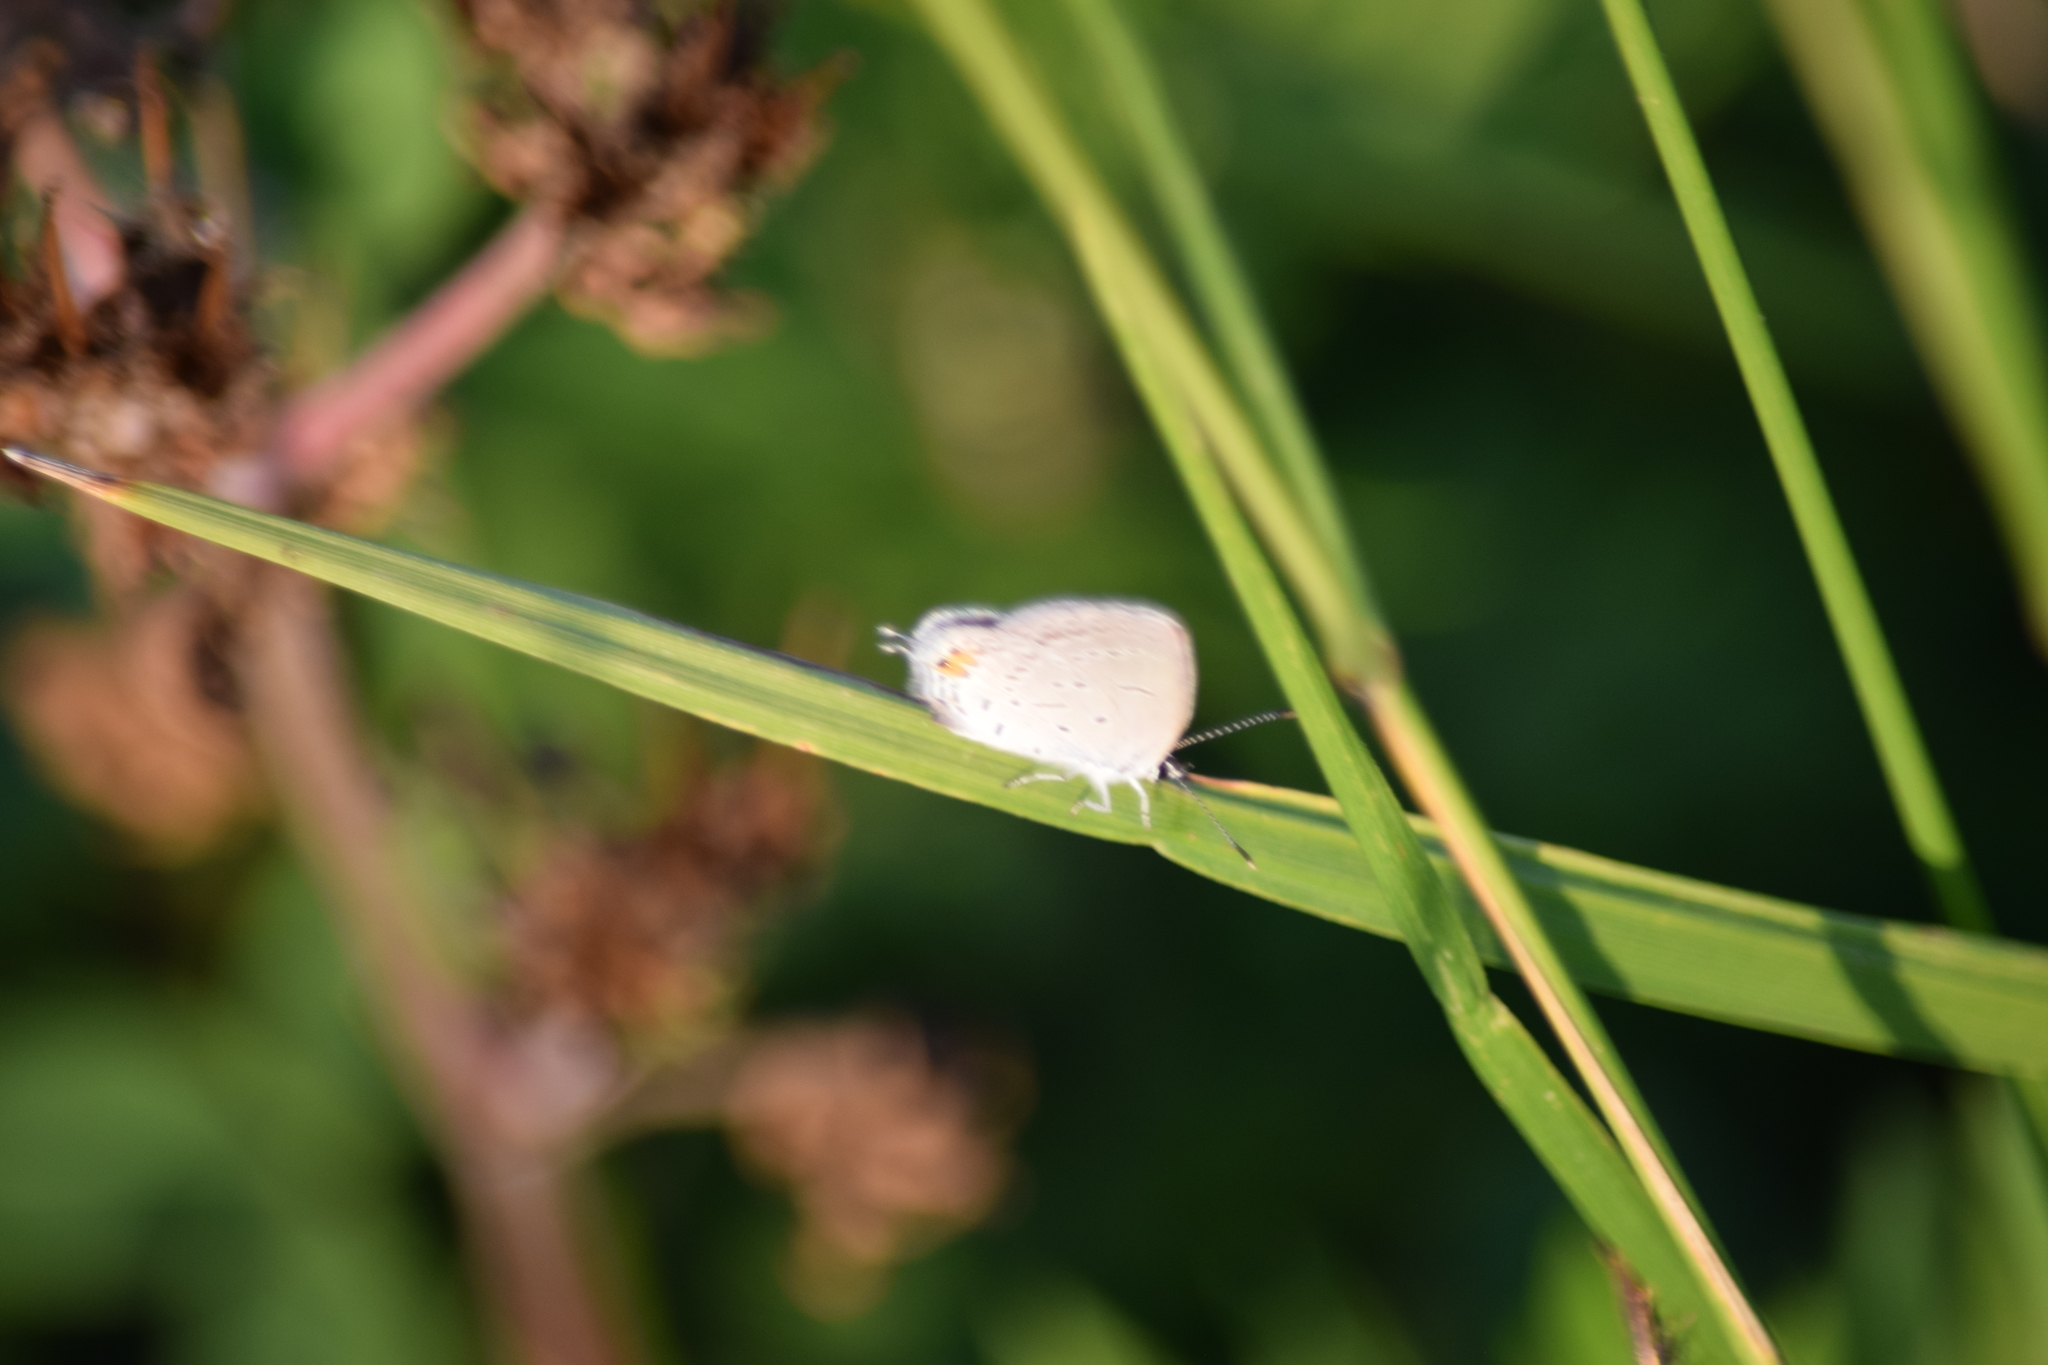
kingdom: Animalia
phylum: Arthropoda
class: Insecta
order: Lepidoptera
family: Lycaenidae
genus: Elkalyce
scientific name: Elkalyce comyntas
